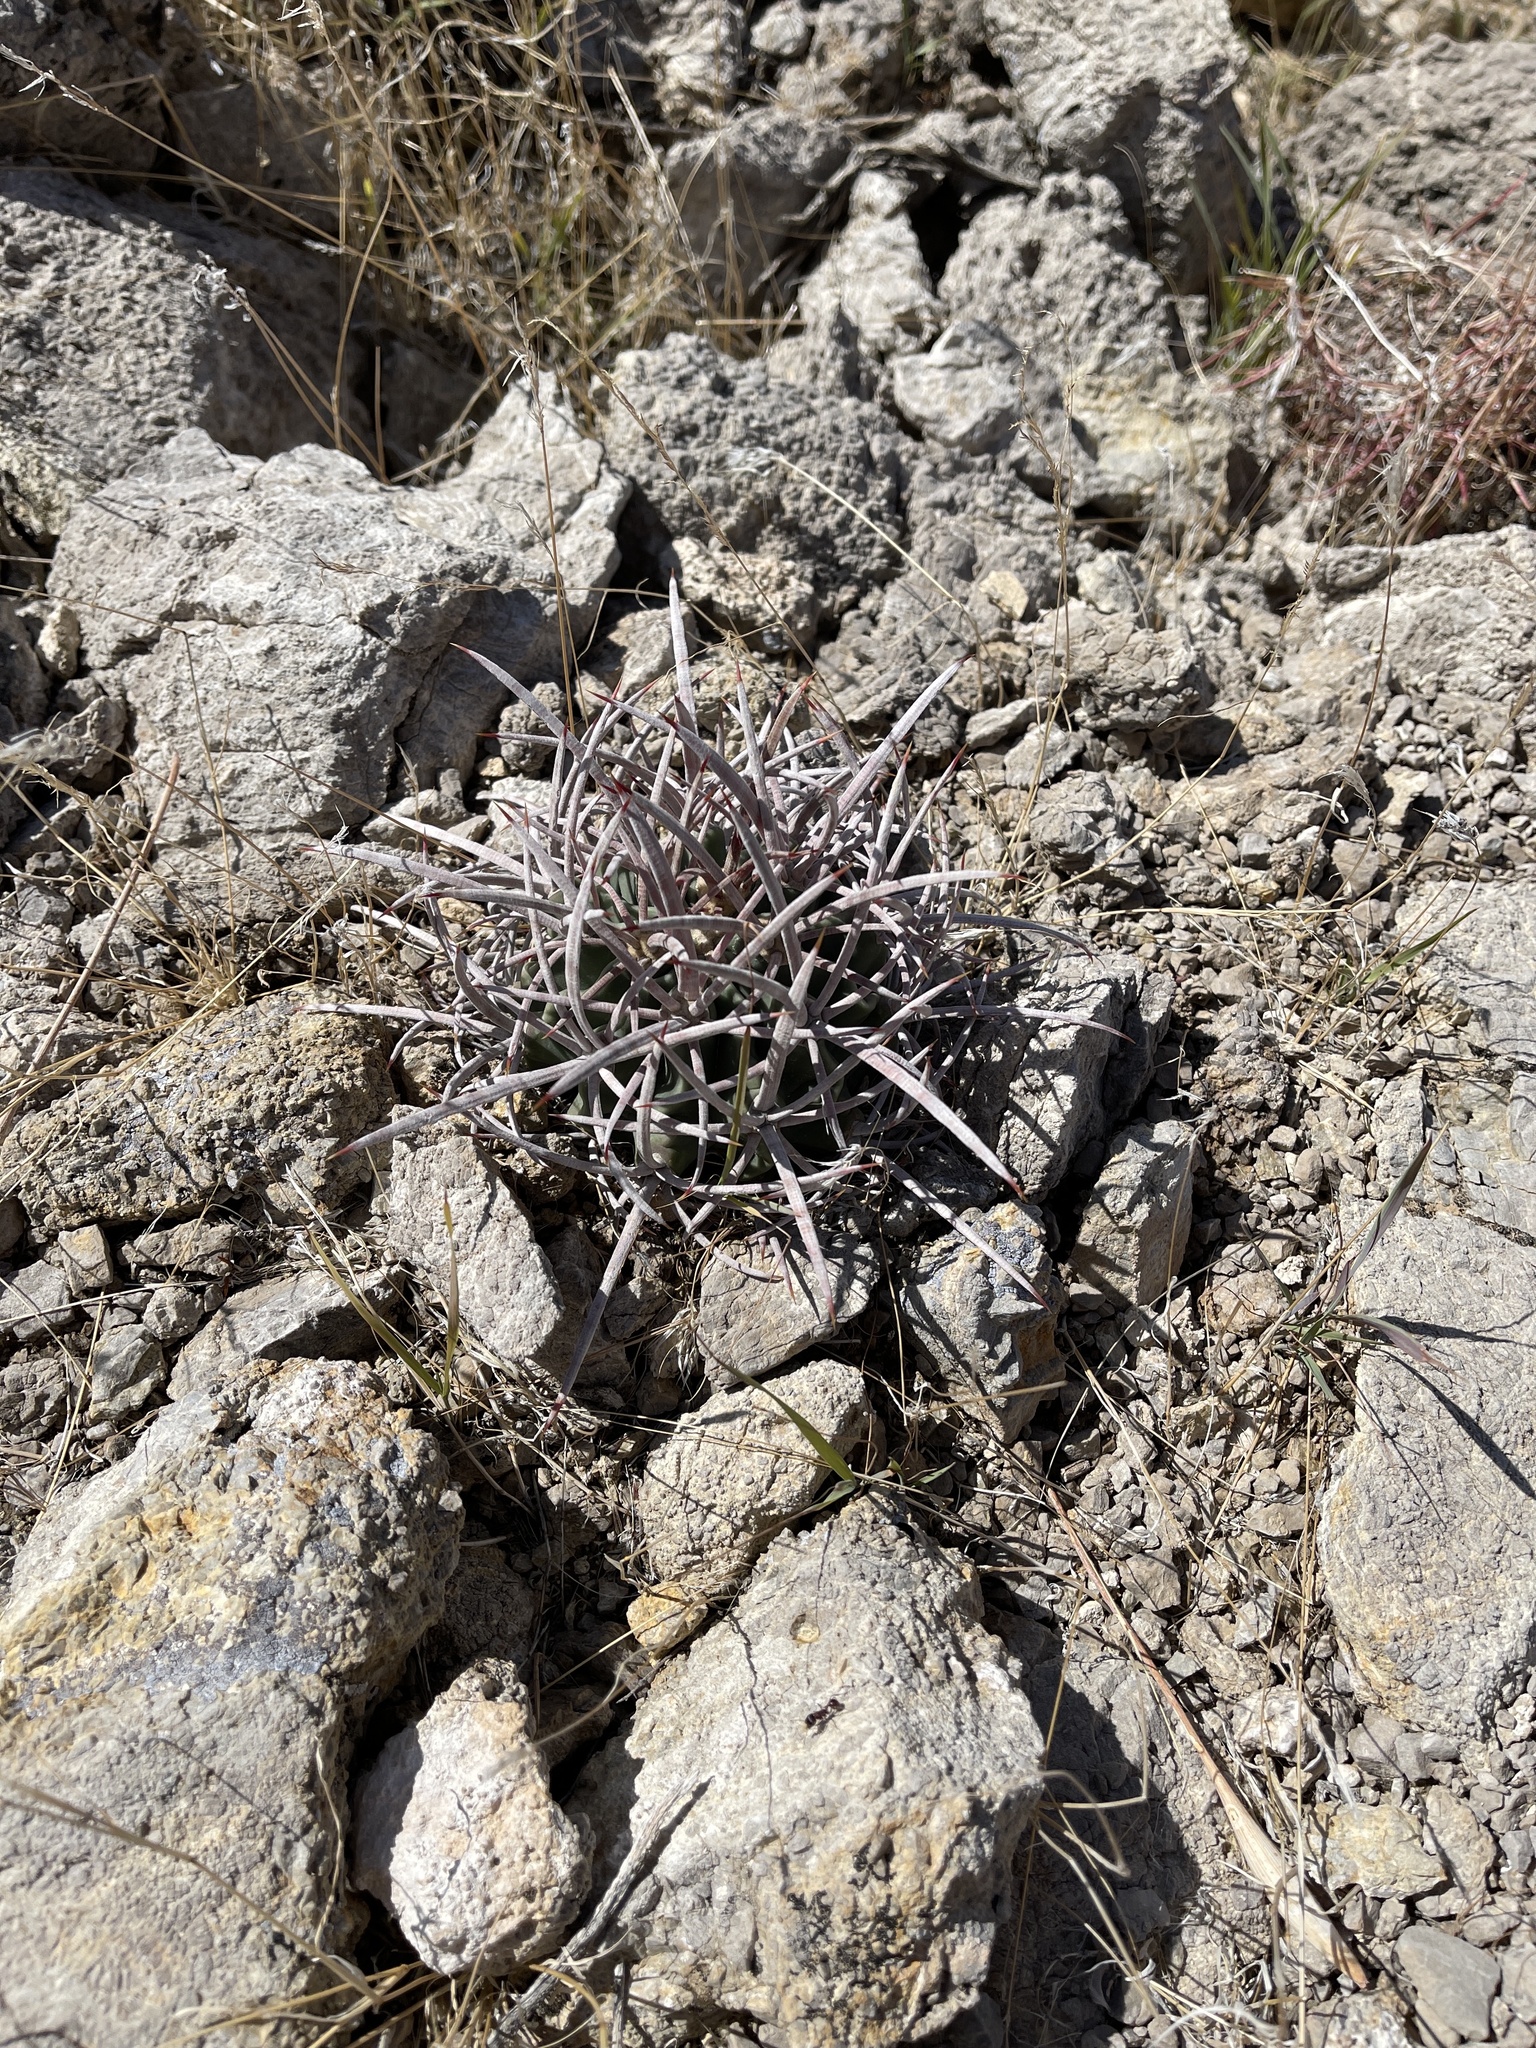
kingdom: Plantae
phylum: Tracheophyta
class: Magnoliopsida
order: Caryophyllales
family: Cactaceae
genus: Echinocactus
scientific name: Echinocactus polycephalus
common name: Cottontop cactus
